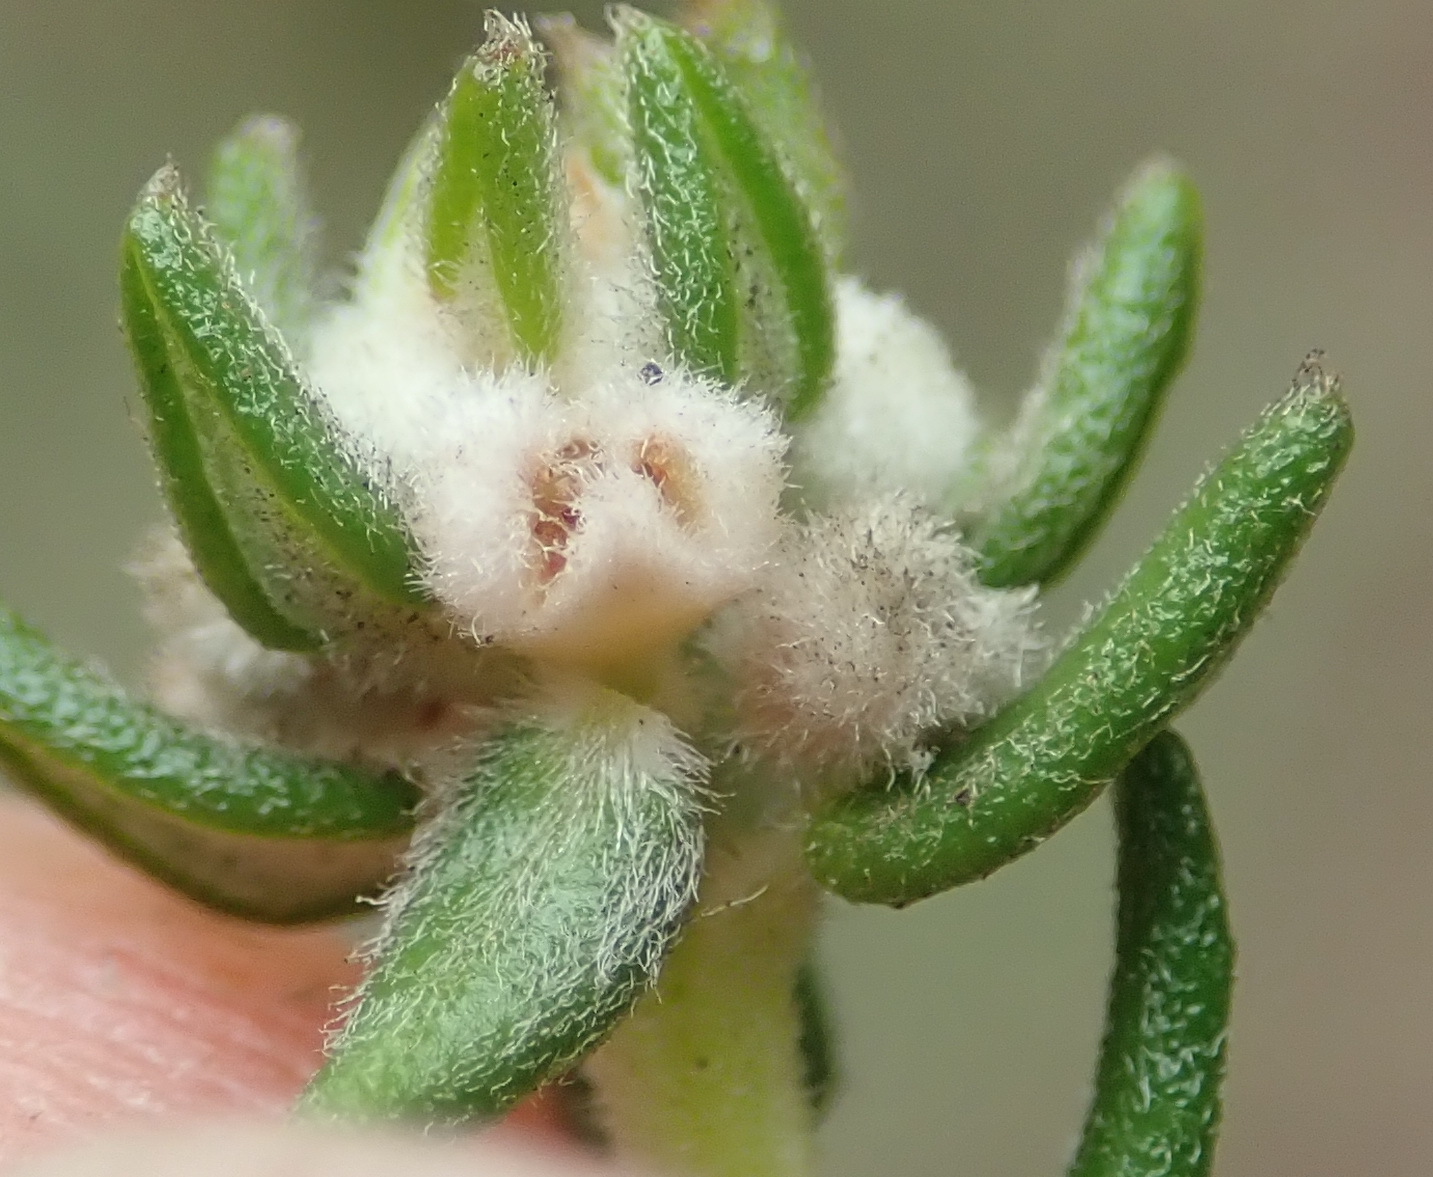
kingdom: Plantae
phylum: Tracheophyta
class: Magnoliopsida
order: Rosales
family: Rhamnaceae
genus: Phylica
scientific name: Phylica purpurea
